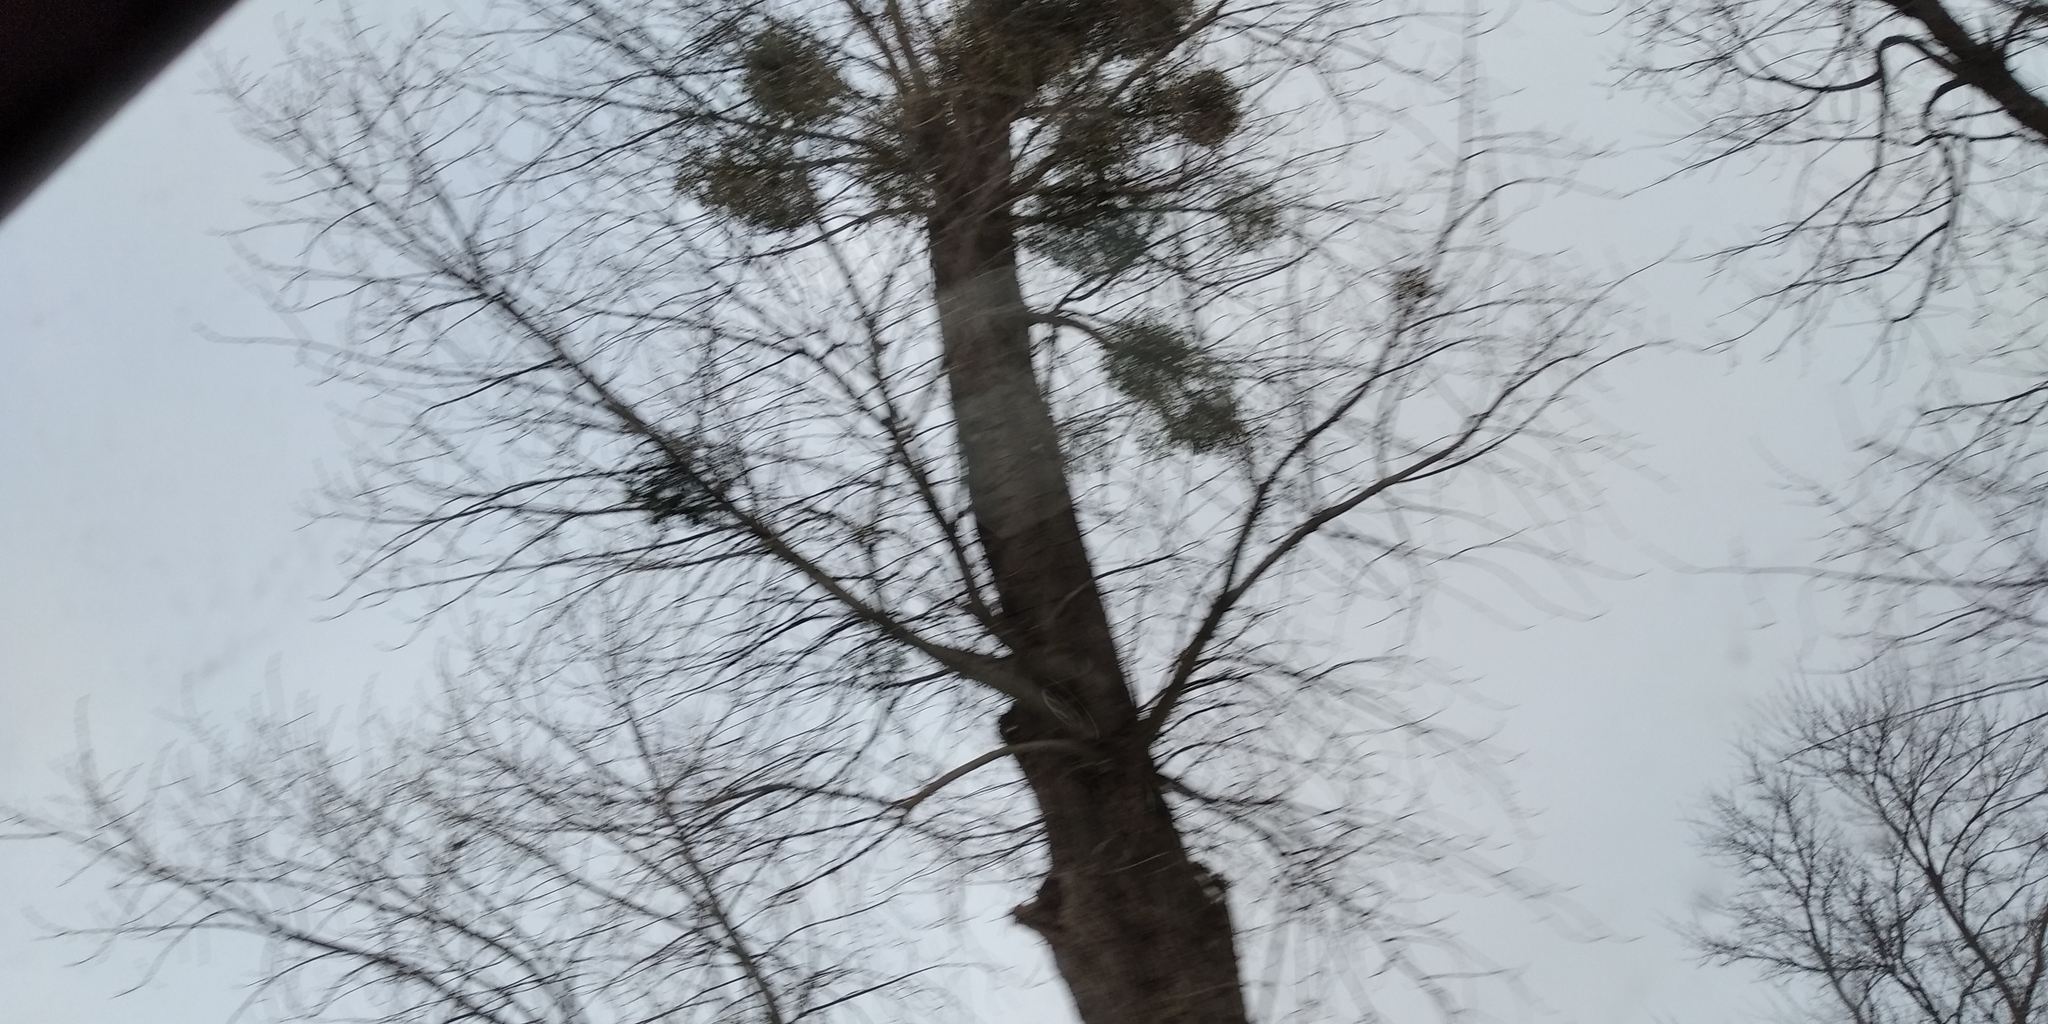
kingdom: Plantae
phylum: Tracheophyta
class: Magnoliopsida
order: Santalales
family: Viscaceae
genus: Viscum
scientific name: Viscum album
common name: Mistletoe
